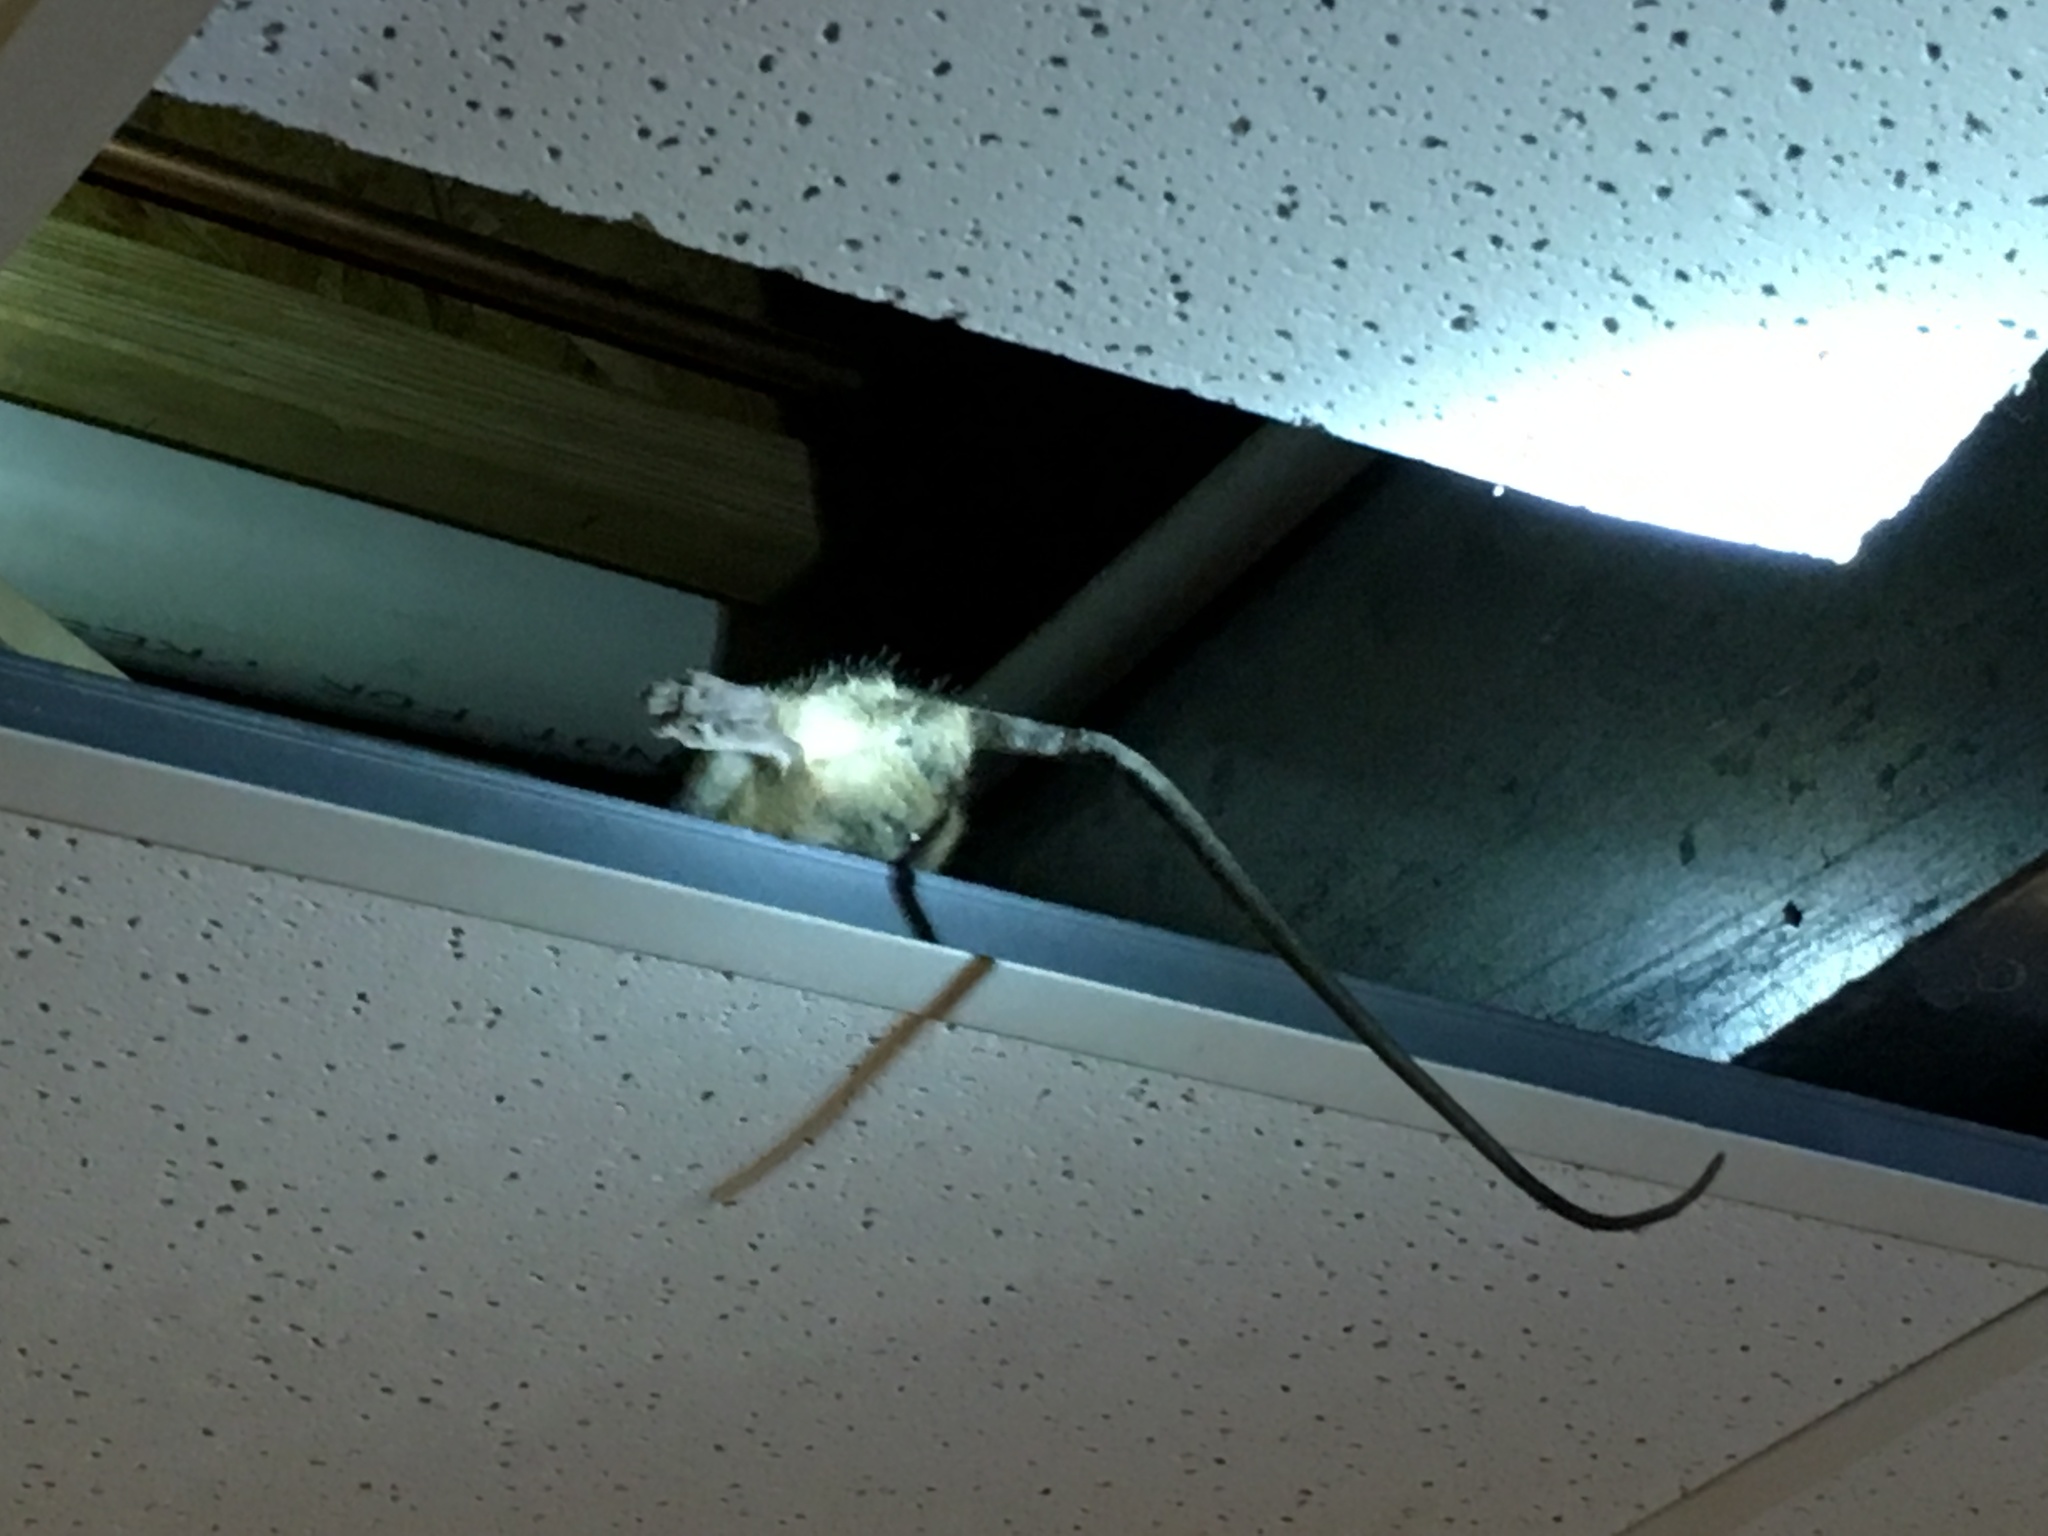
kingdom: Animalia
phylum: Chordata
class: Mammalia
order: Rodentia
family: Muridae
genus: Rattus
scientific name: Rattus rattus
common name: Black rat
